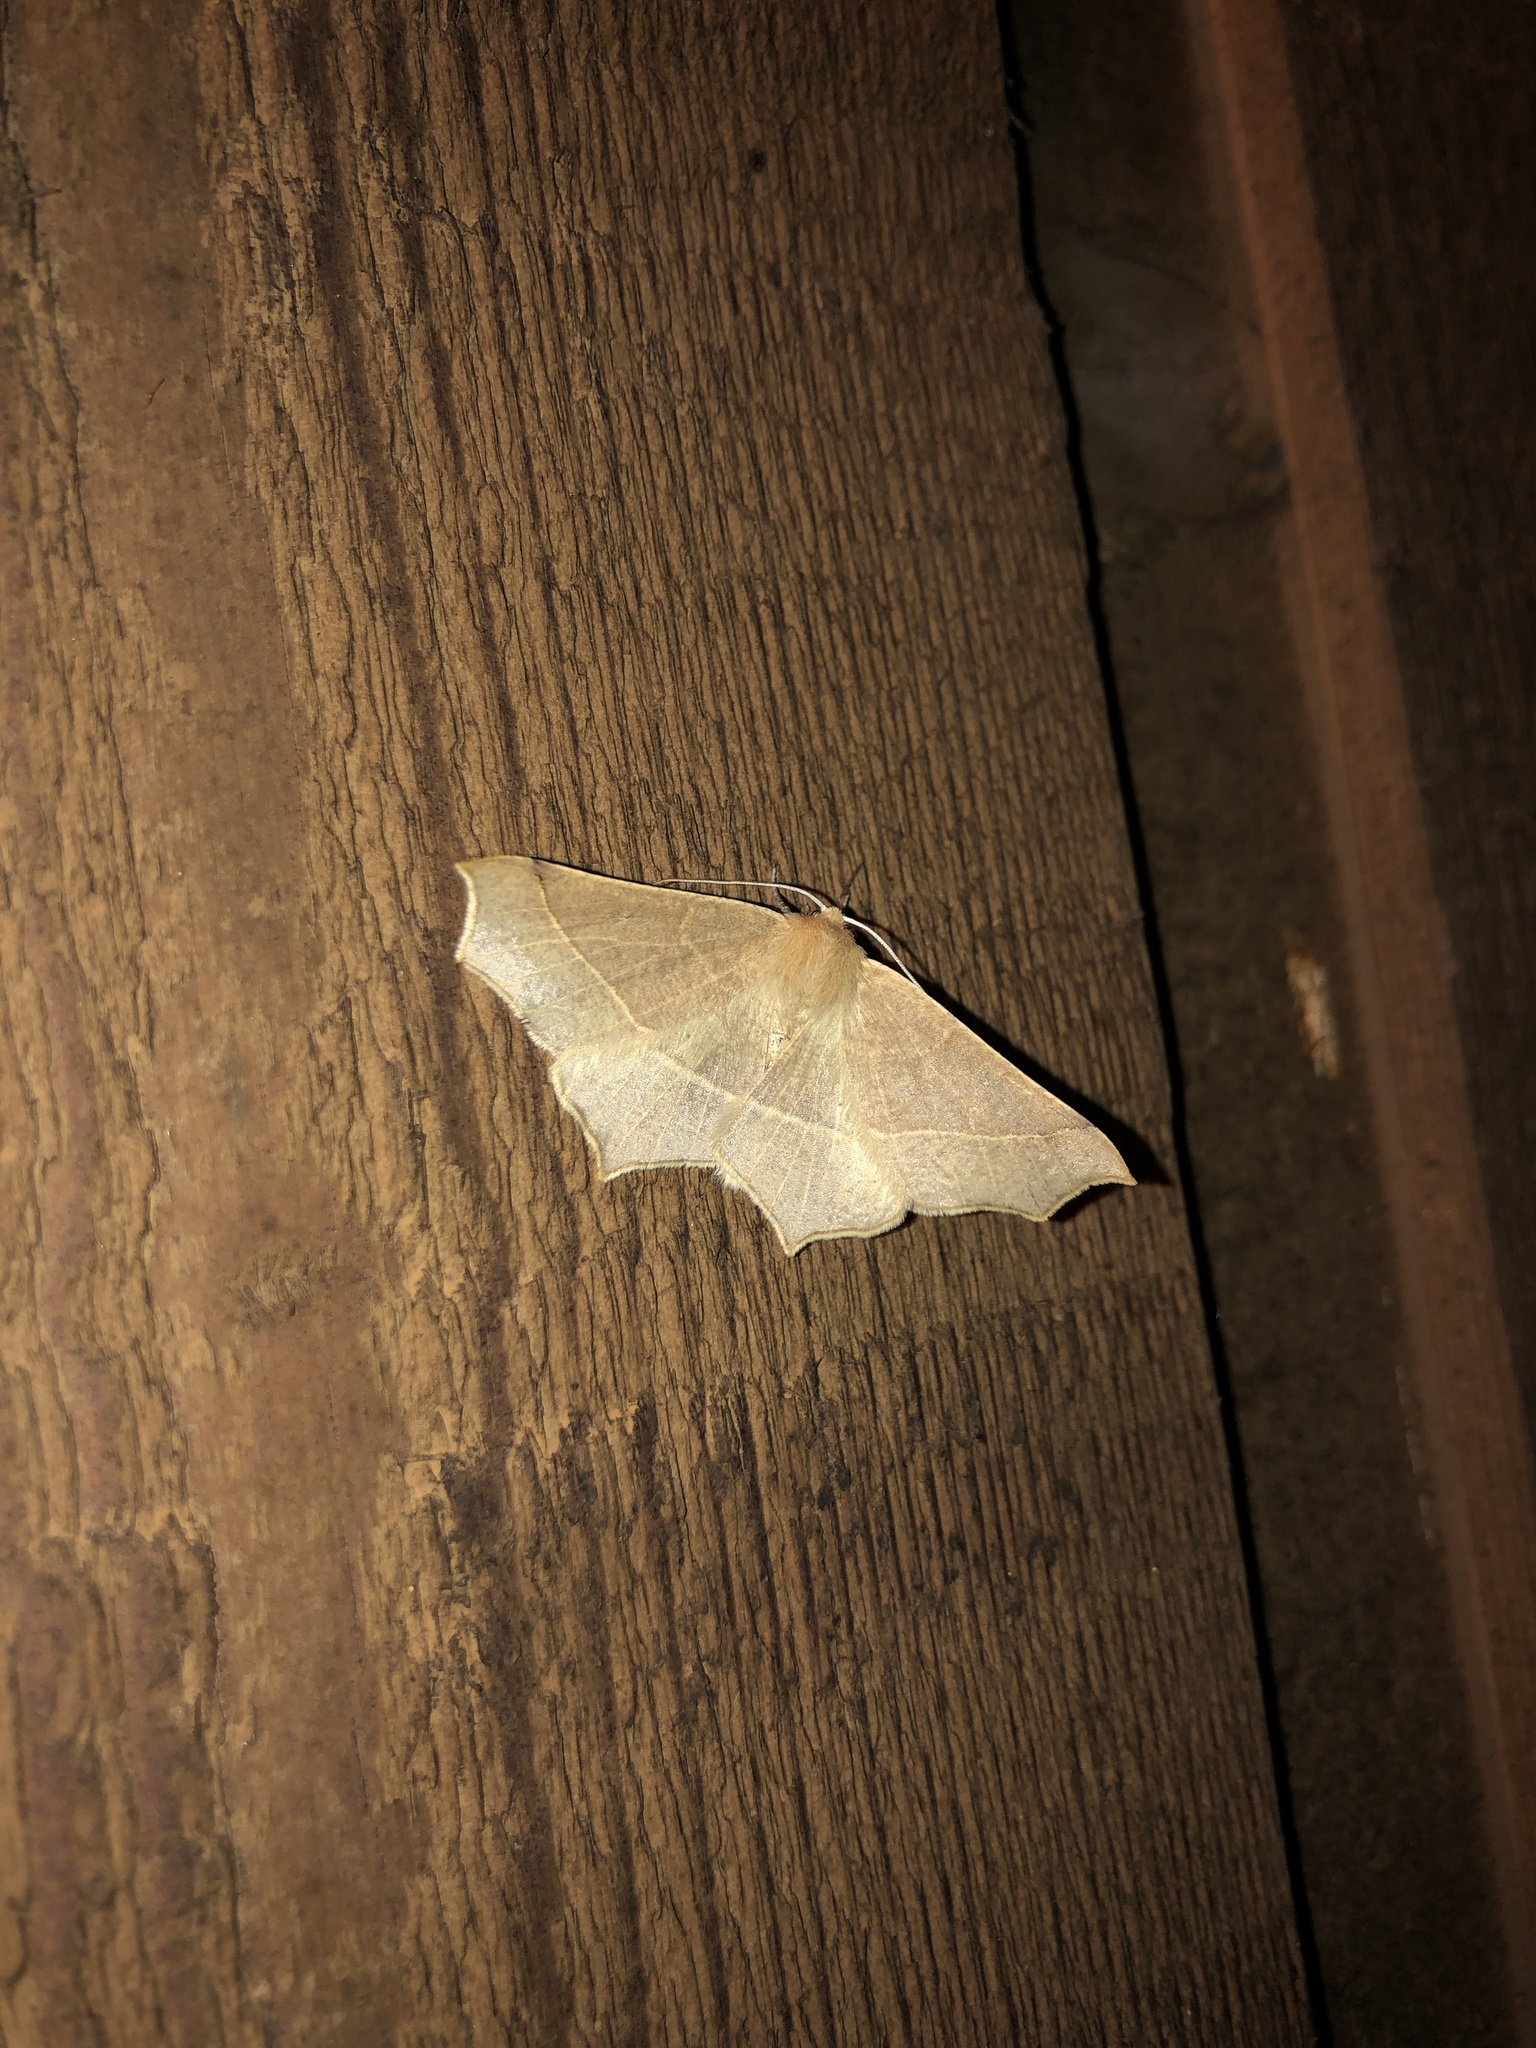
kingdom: Animalia
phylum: Arthropoda
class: Insecta
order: Lepidoptera
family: Geometridae
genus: Tetracis
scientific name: Tetracis cervinaria
